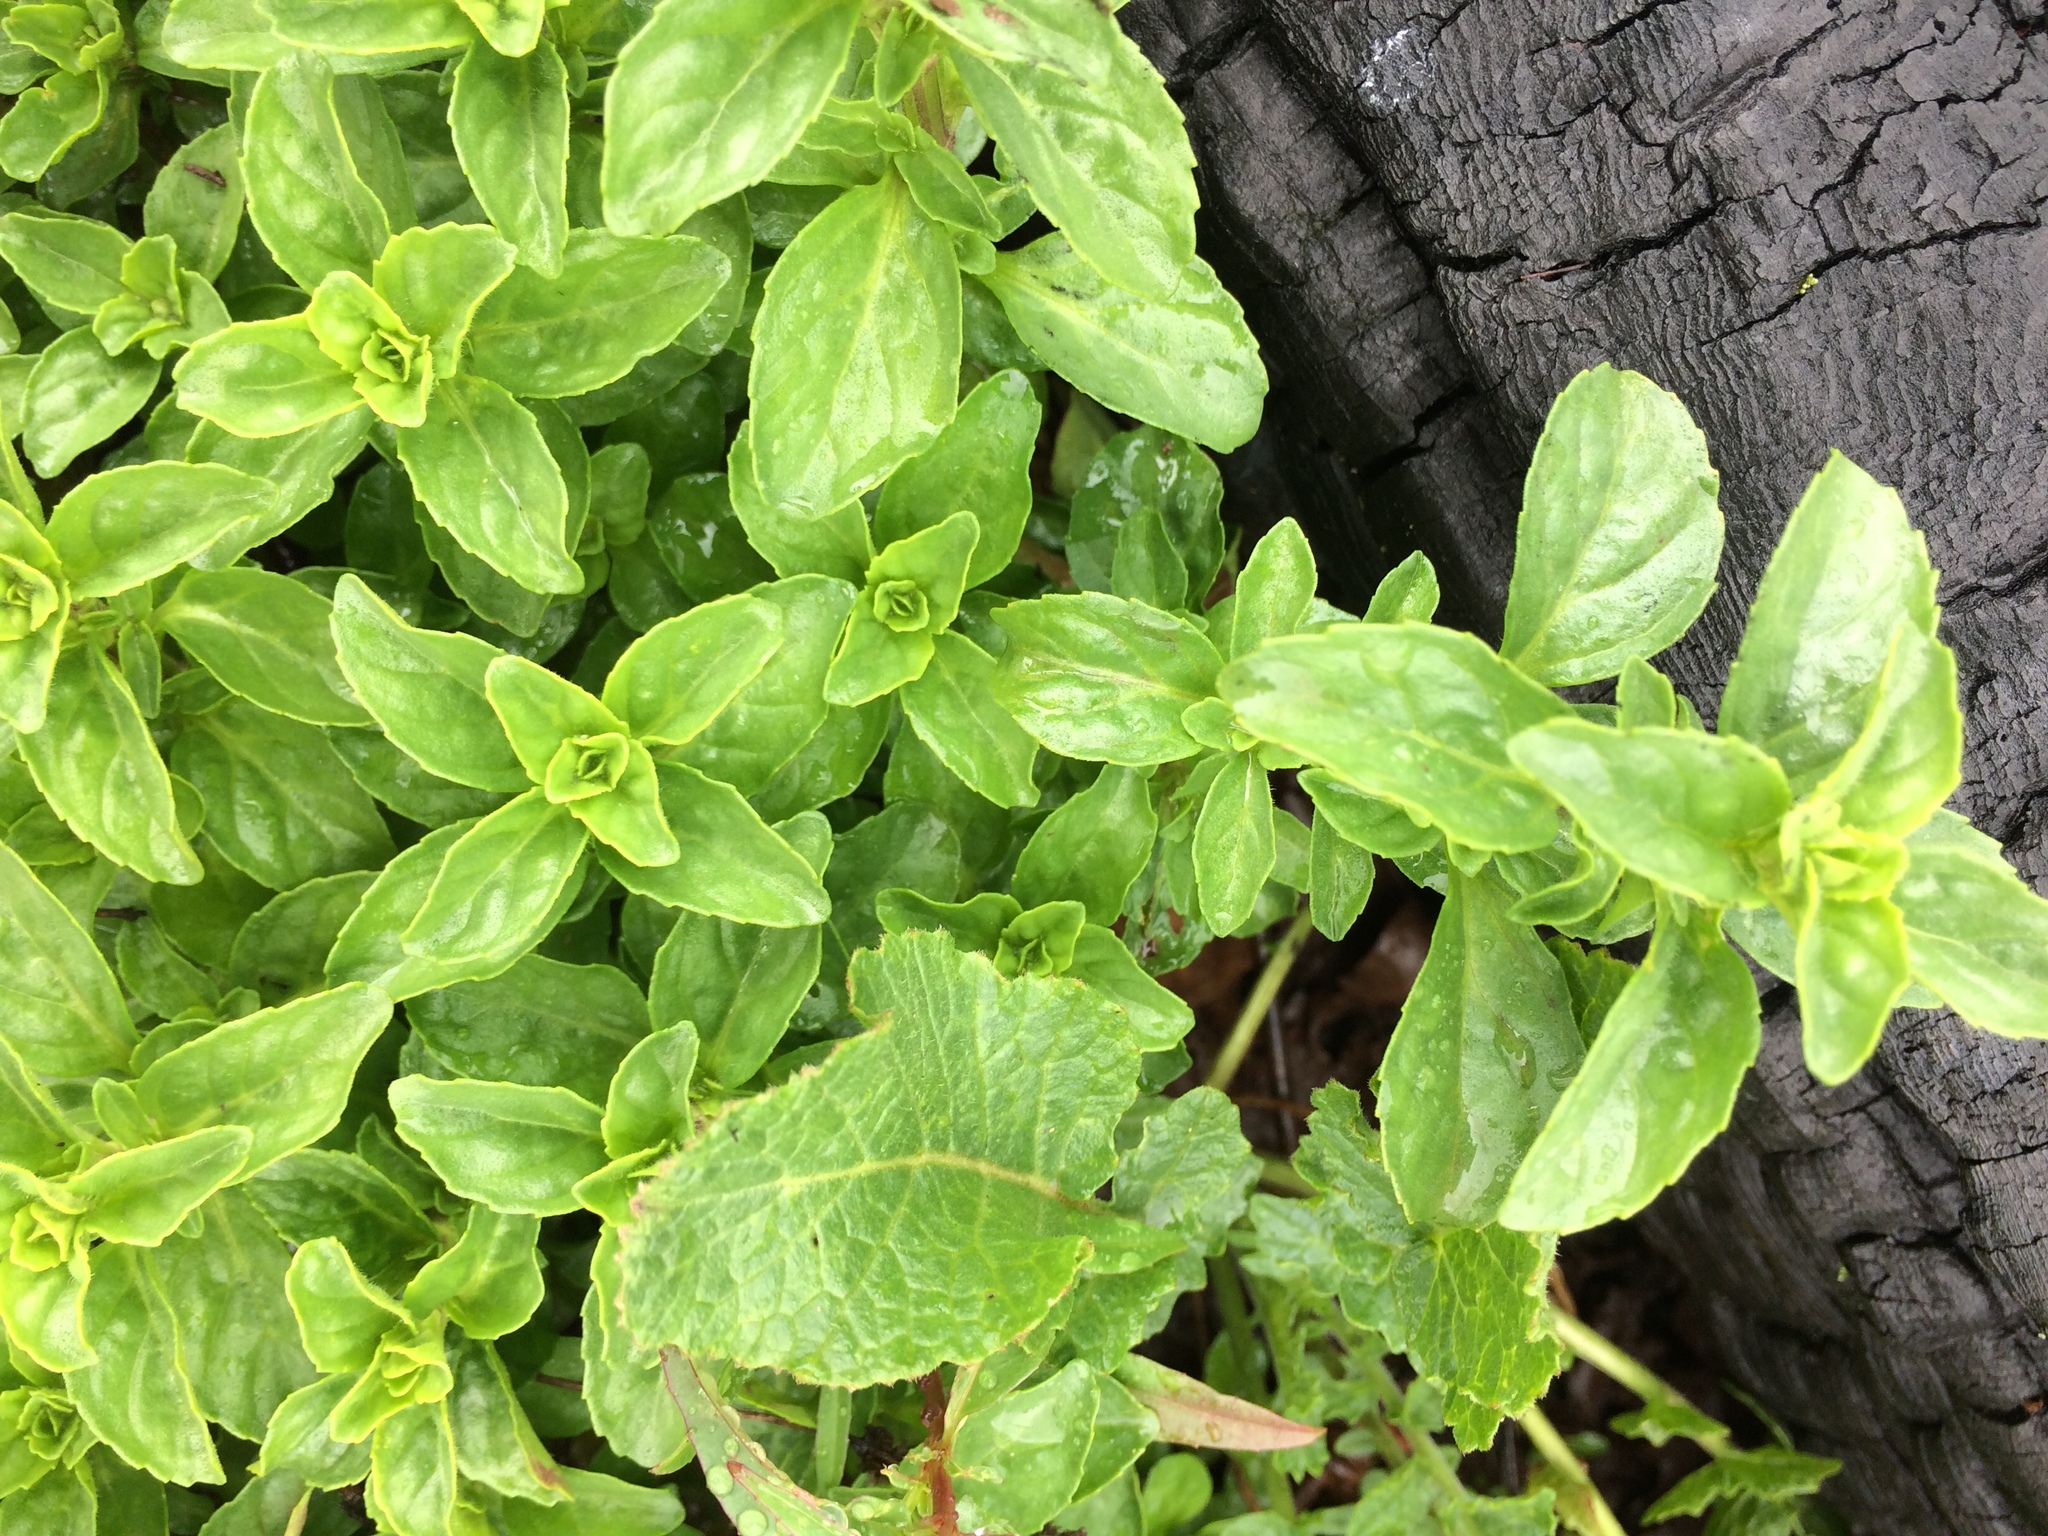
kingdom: Plantae
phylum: Tracheophyta
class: Magnoliopsida
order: Lamiales
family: Lamiaceae
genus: Mentha
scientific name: Mentha pulegium
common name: Pennyroyal
